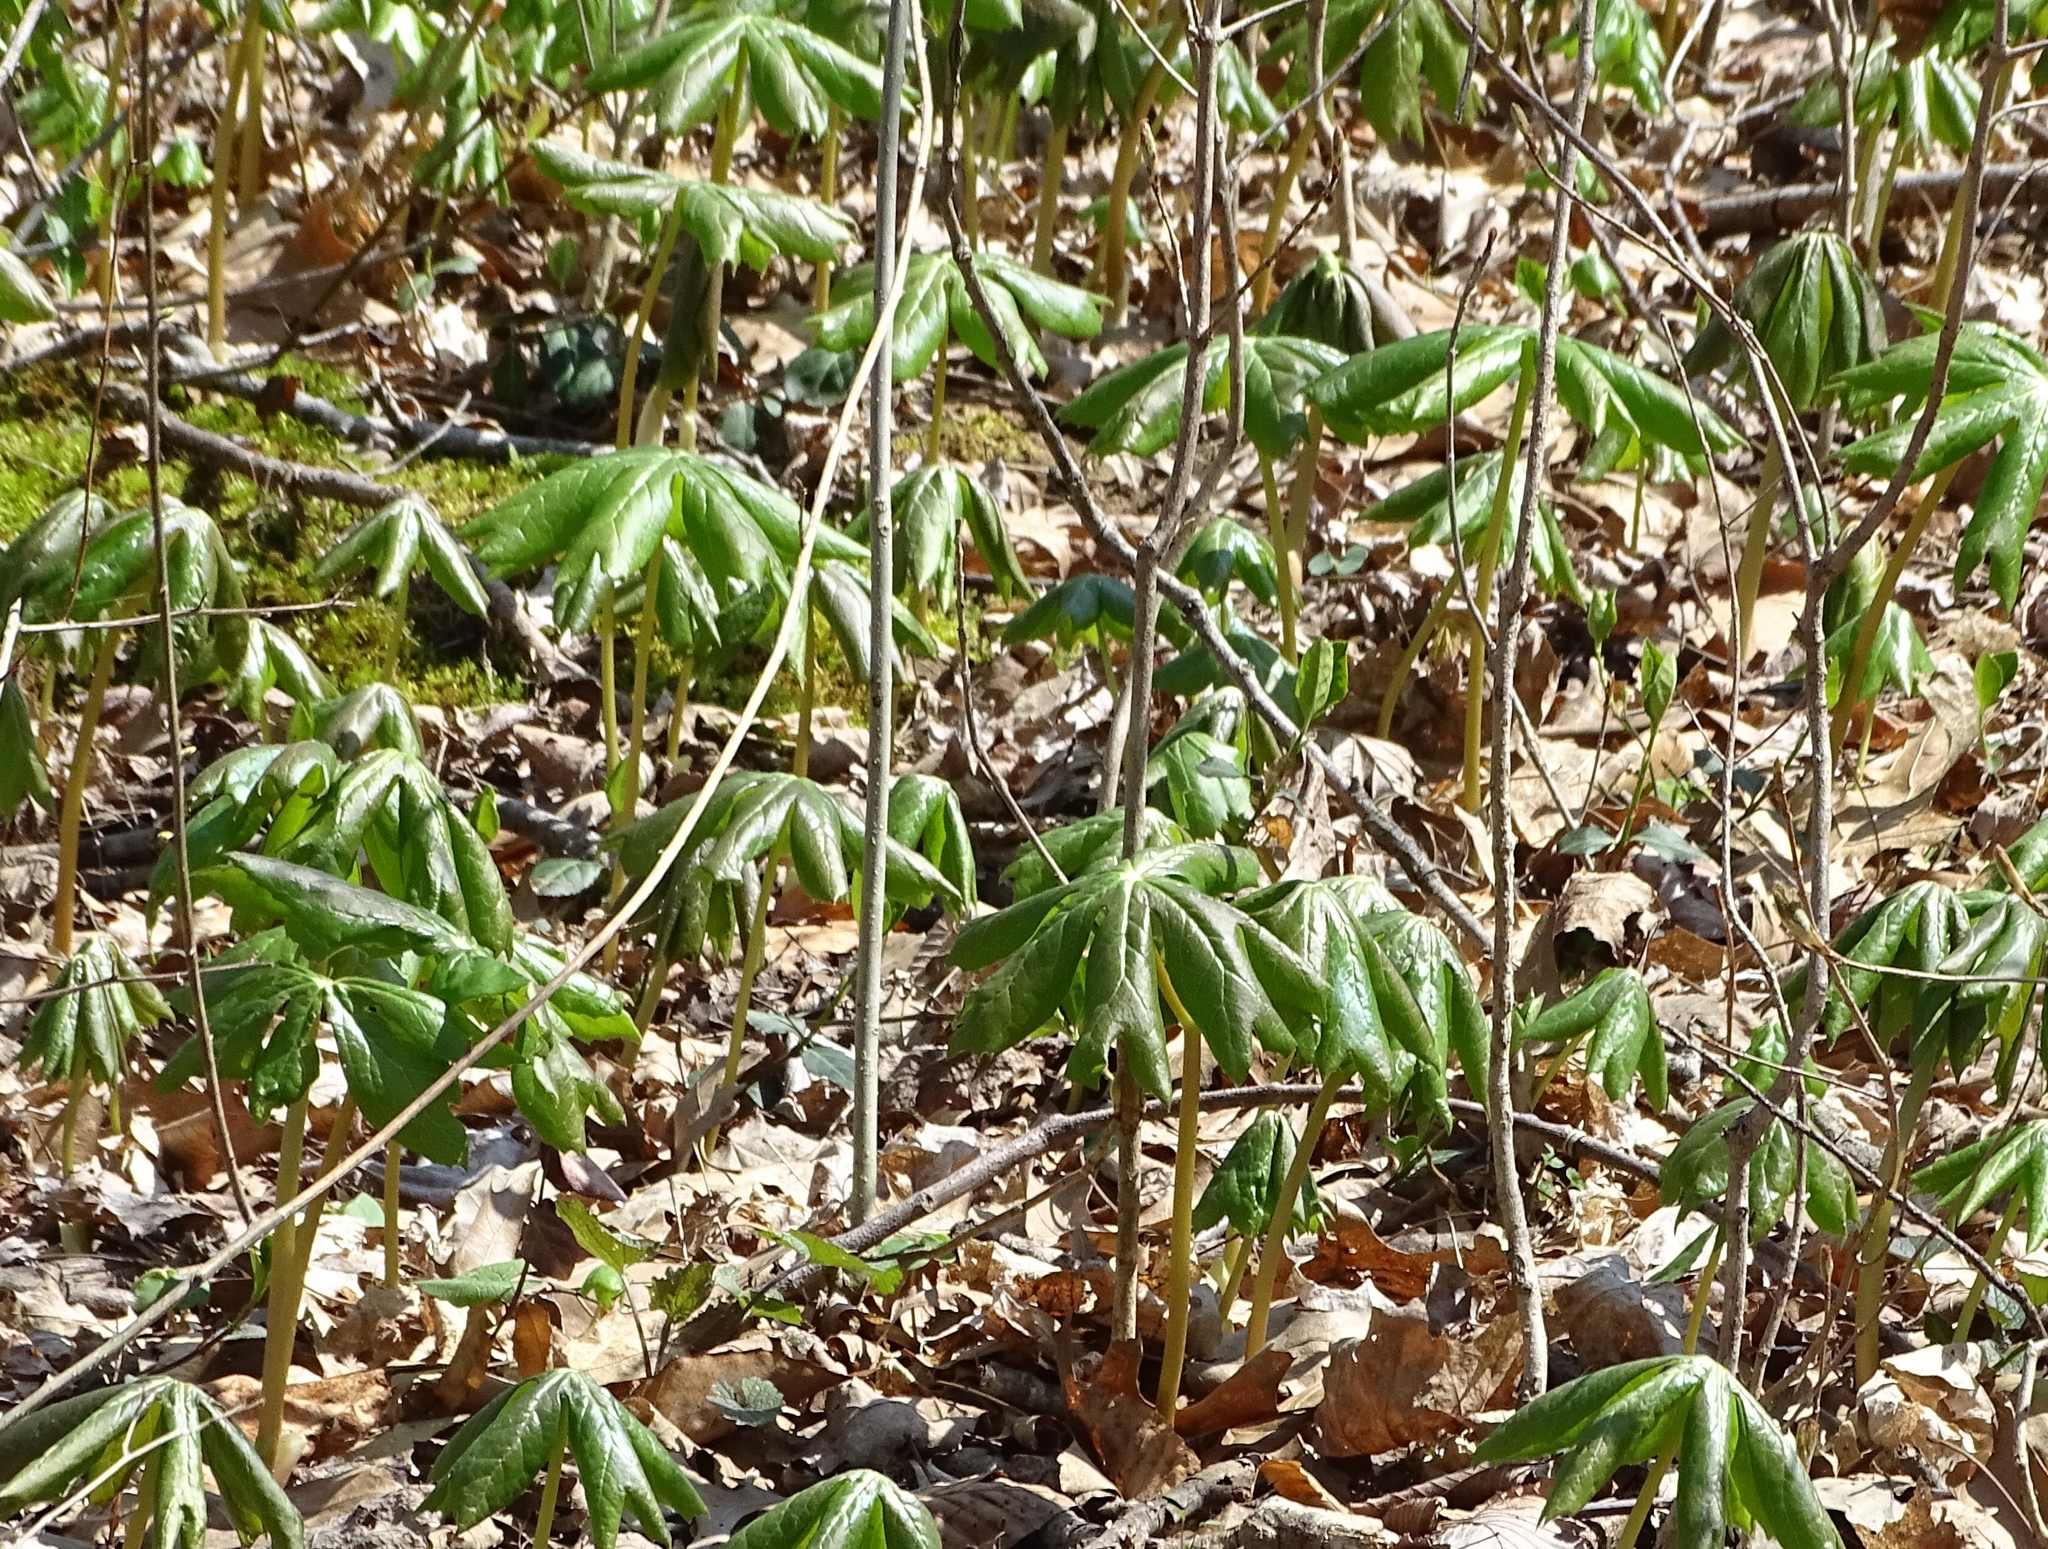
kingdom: Plantae
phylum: Tracheophyta
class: Magnoliopsida
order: Ranunculales
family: Berberidaceae
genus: Podophyllum
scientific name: Podophyllum peltatum
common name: Wild mandrake
